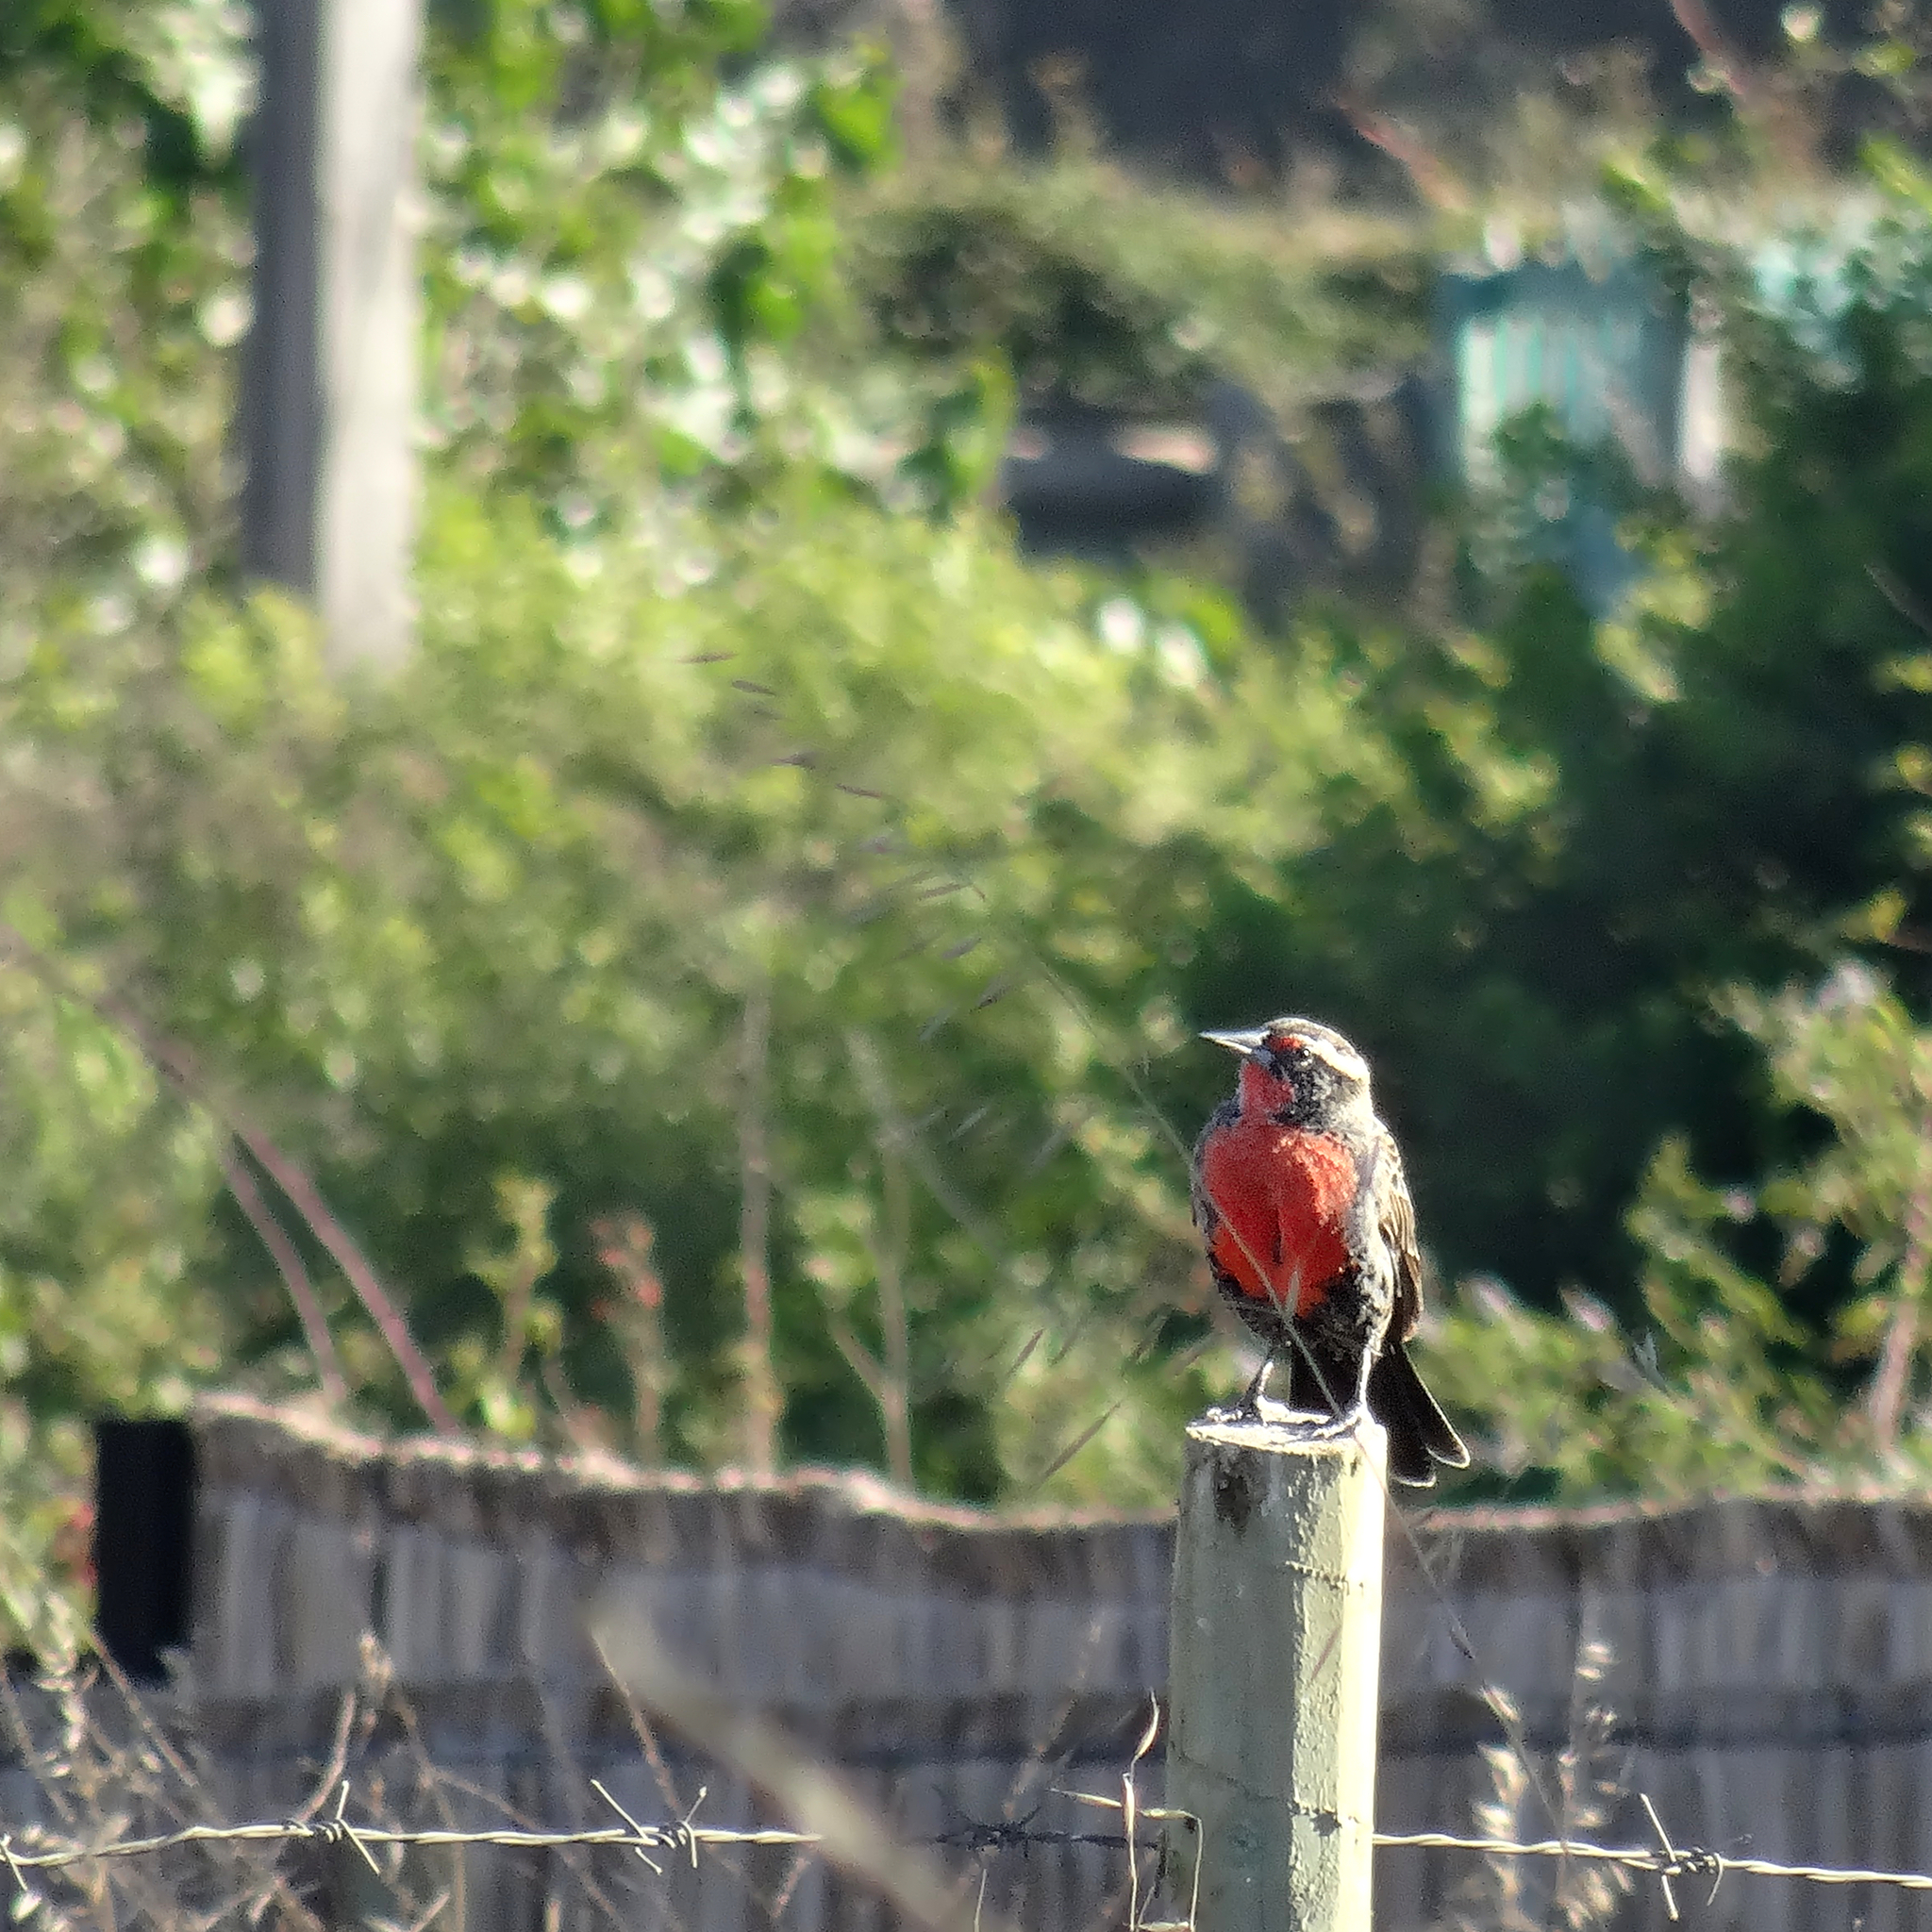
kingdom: Animalia
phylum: Chordata
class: Aves
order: Passeriformes
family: Icteridae
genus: Sturnella
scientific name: Sturnella loyca
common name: Long-tailed meadowlark
